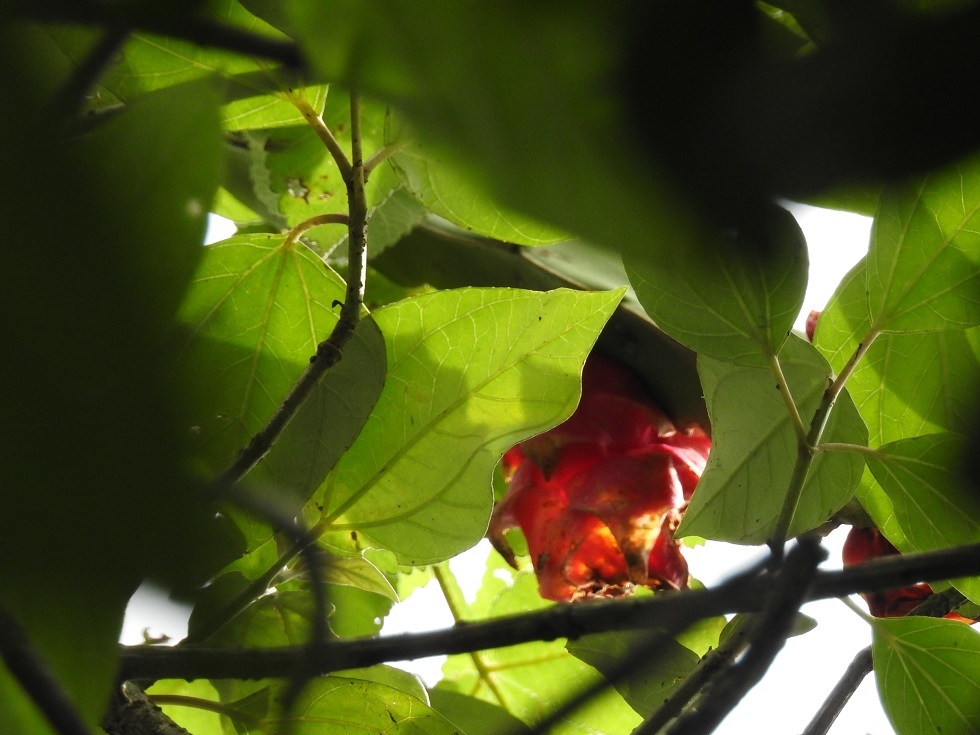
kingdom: Plantae
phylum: Tracheophyta
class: Magnoliopsida
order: Caryophyllales
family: Cactaceae
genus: Selenicereus
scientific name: Selenicereus ocamponis
